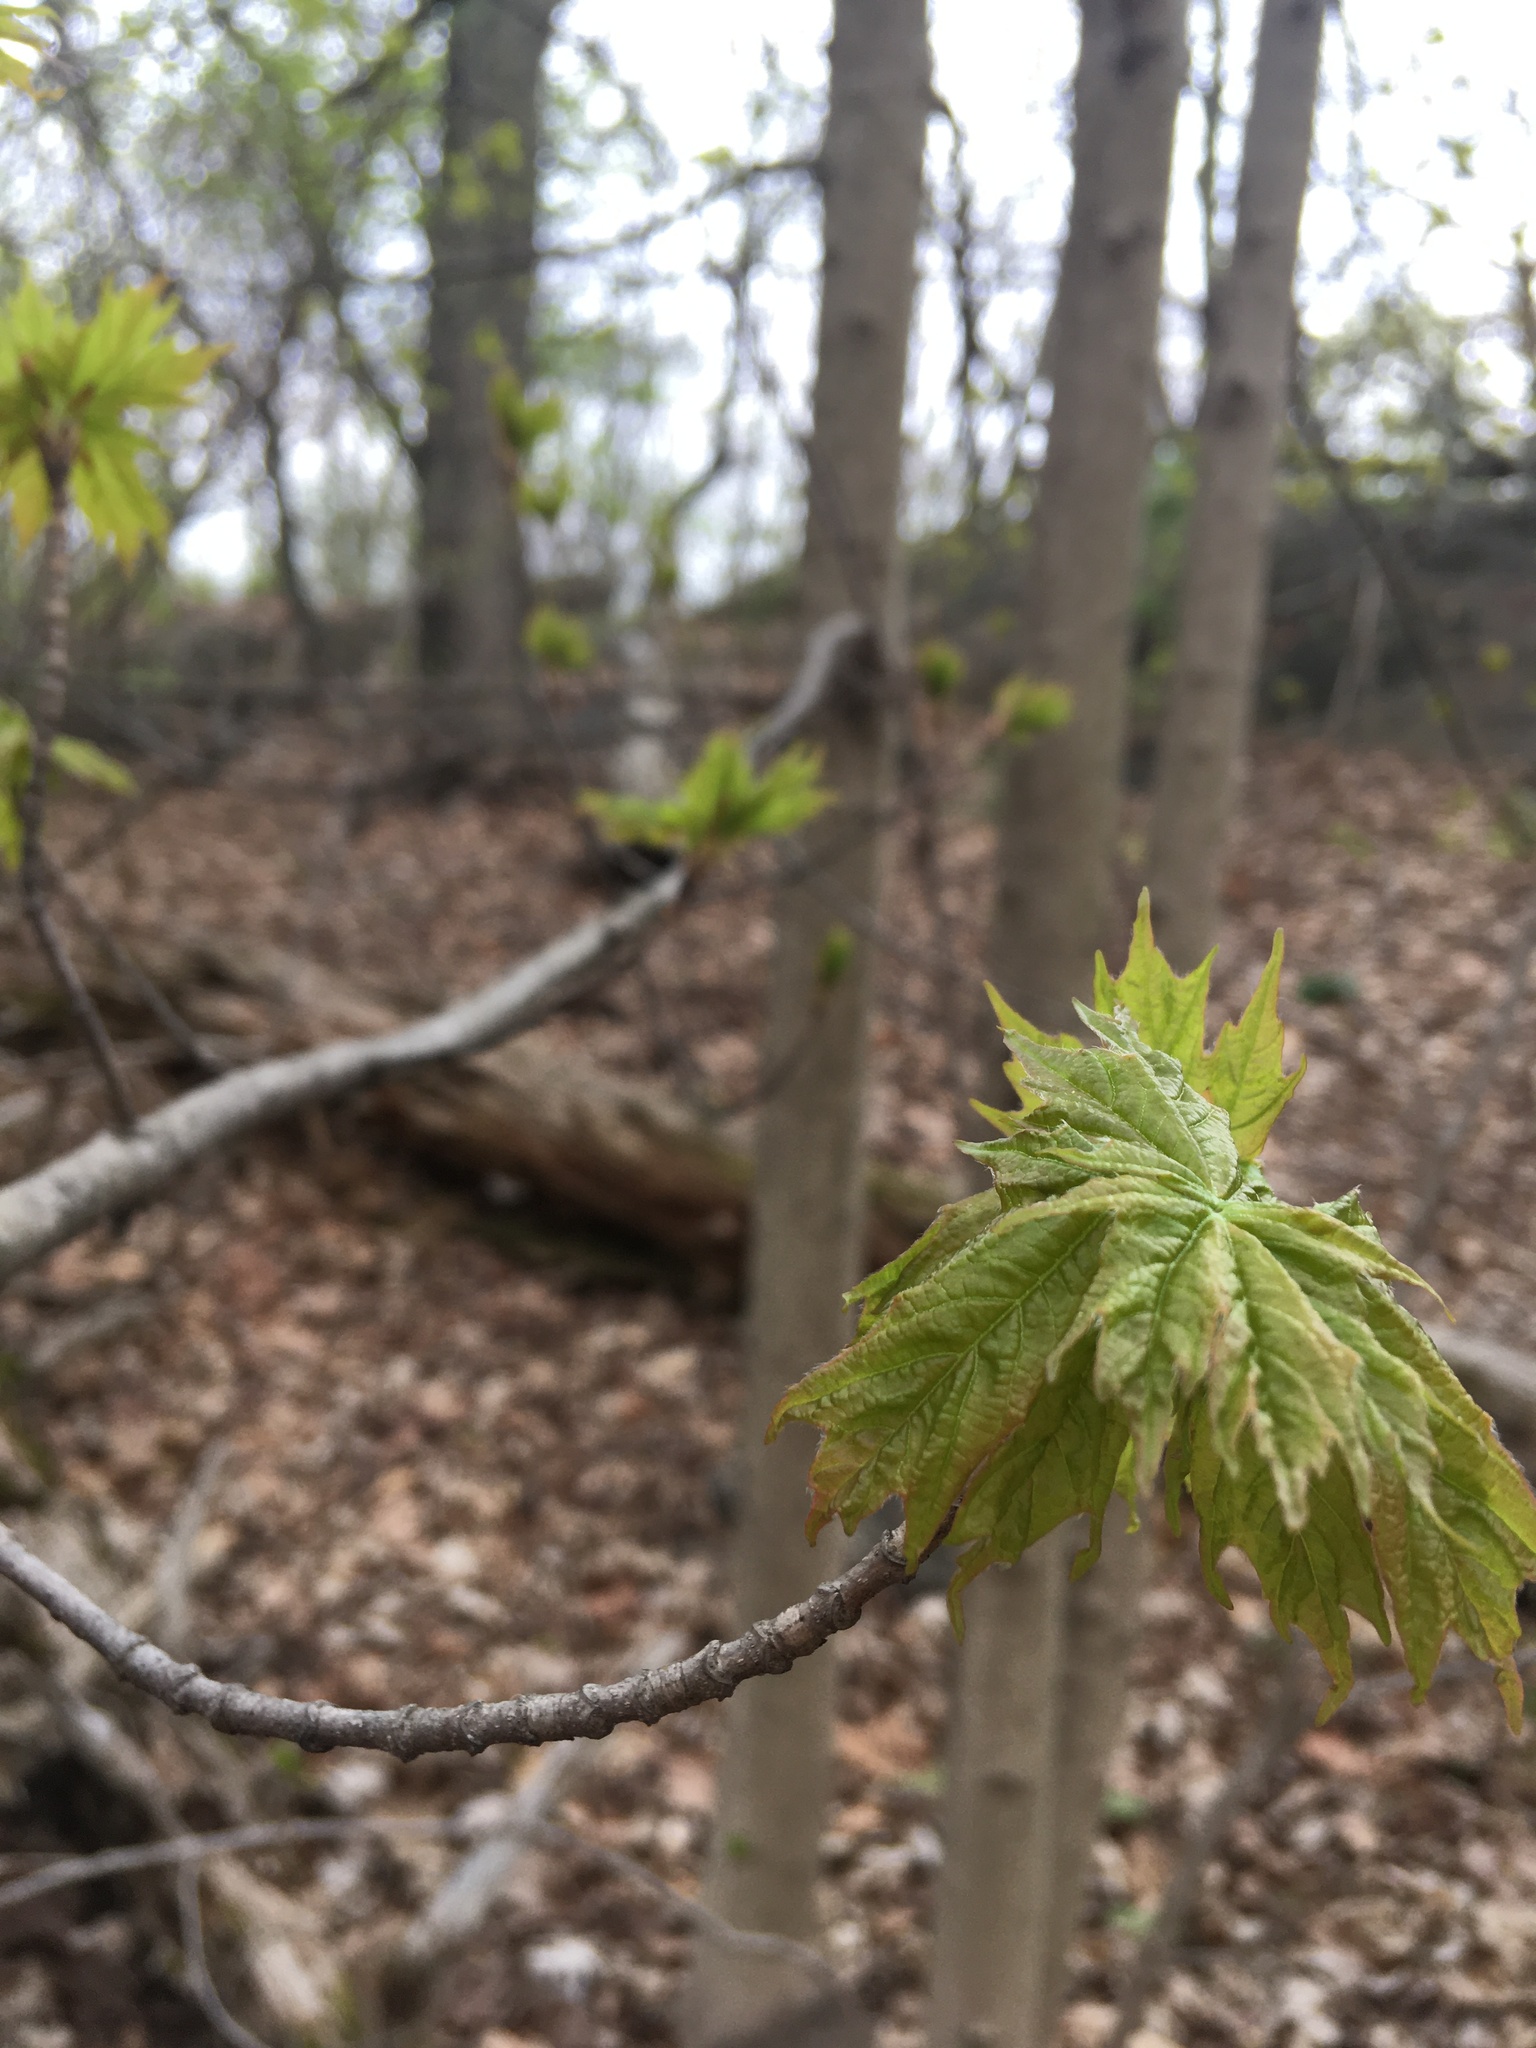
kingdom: Plantae
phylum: Tracheophyta
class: Magnoliopsida
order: Sapindales
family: Sapindaceae
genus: Acer
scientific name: Acer saccharum
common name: Sugar maple
